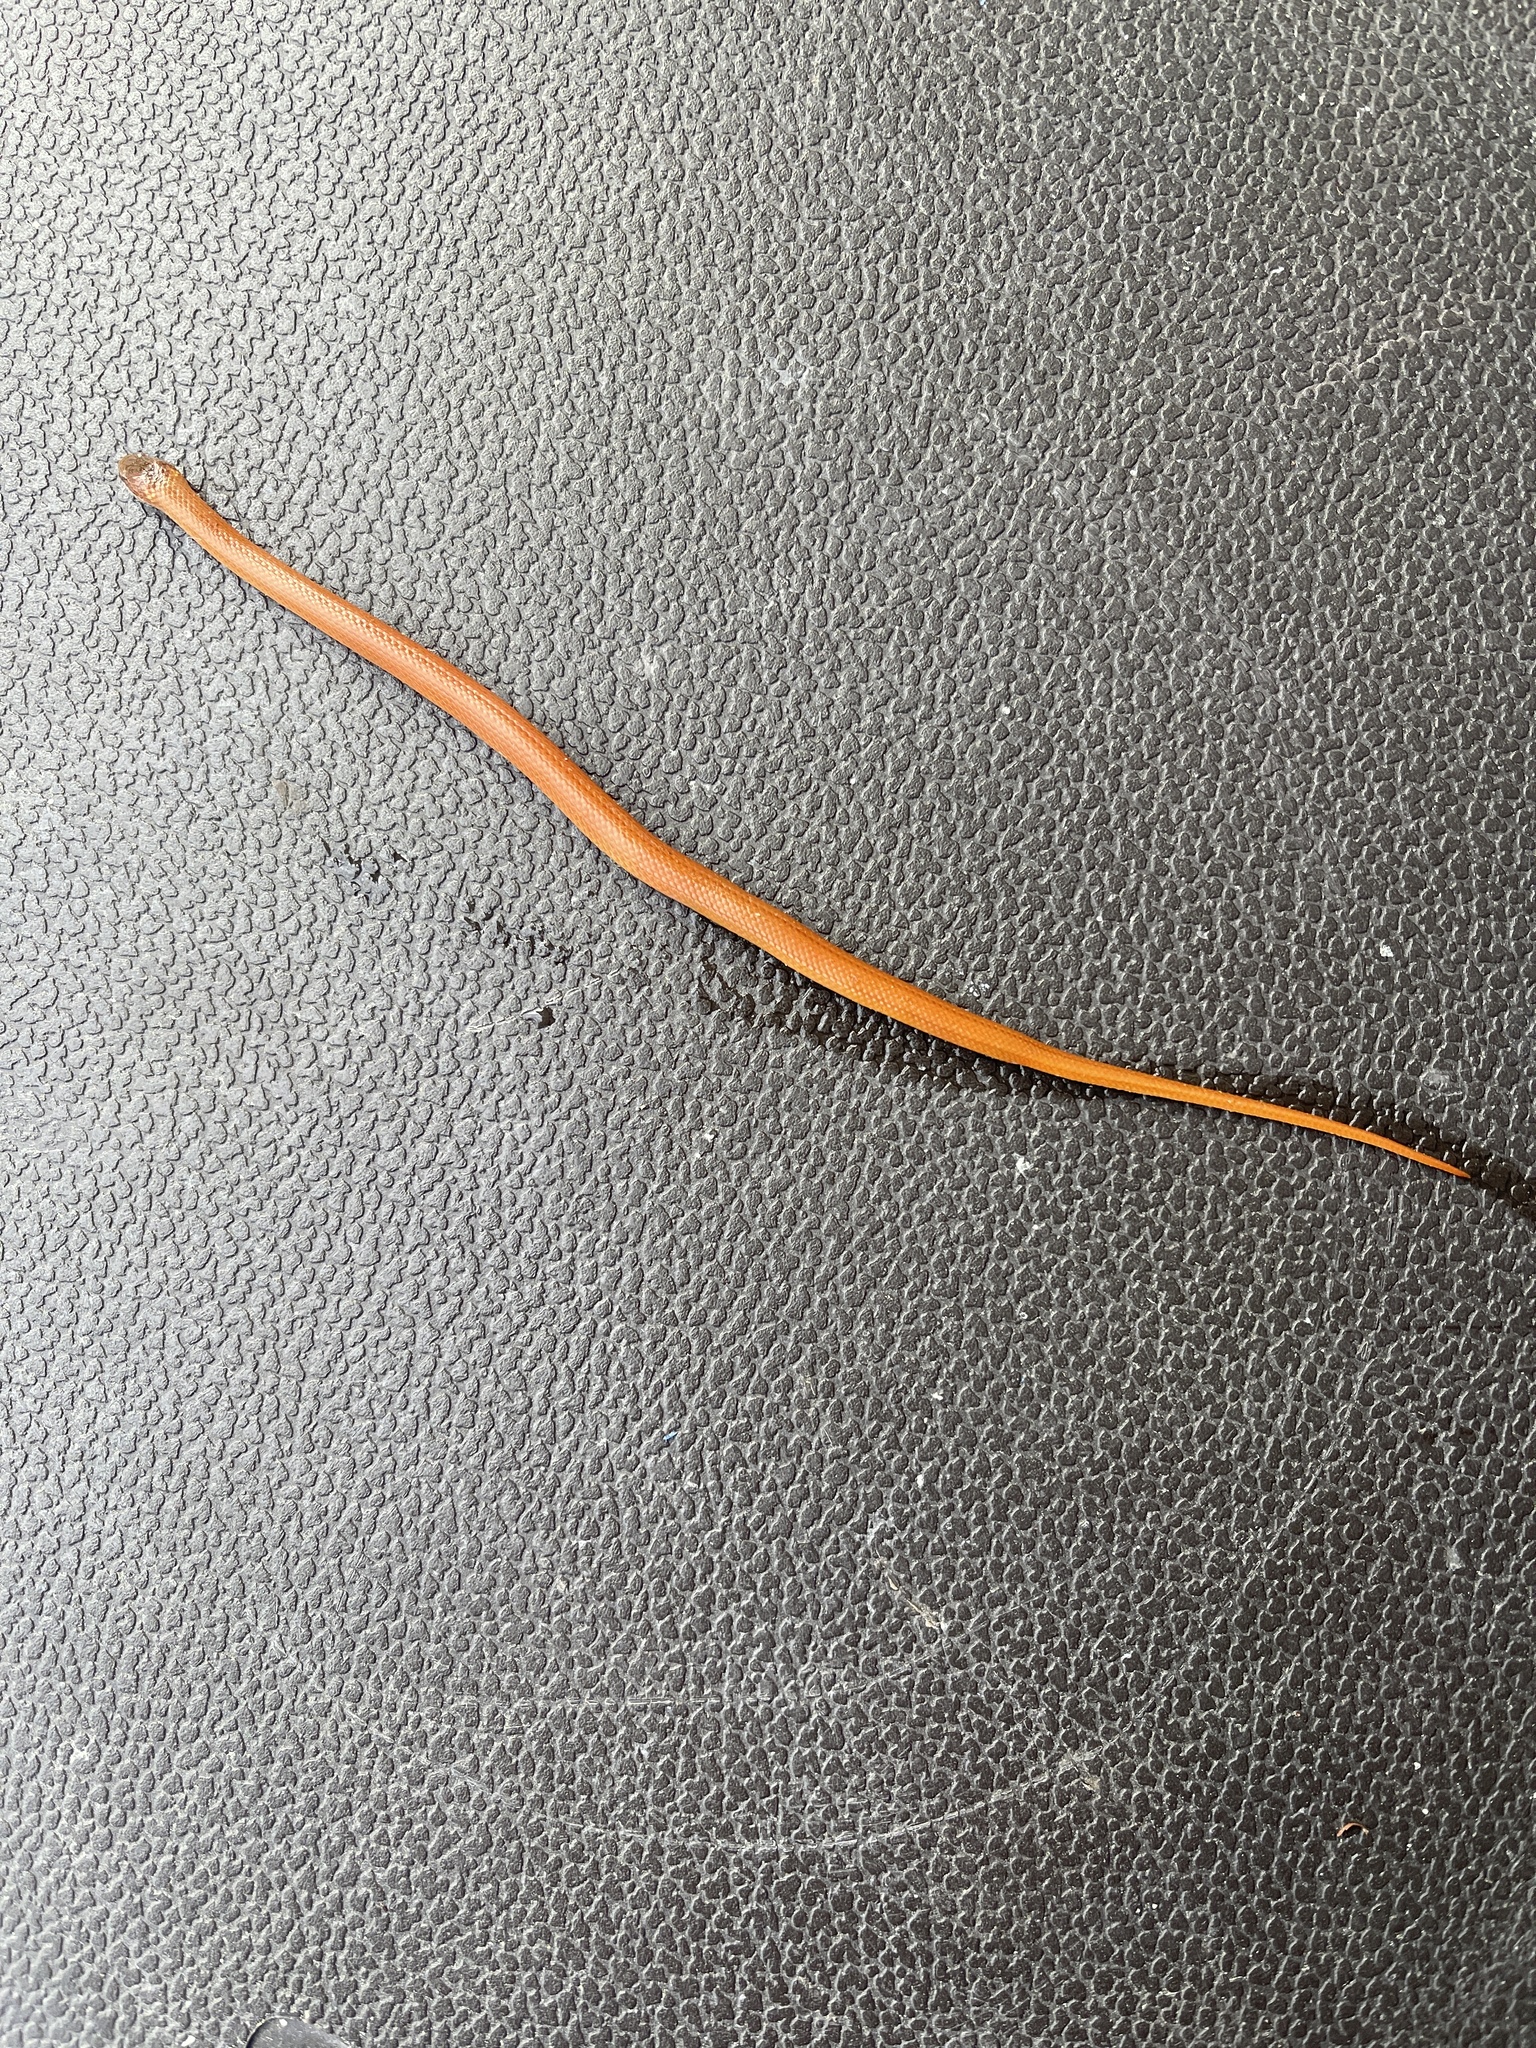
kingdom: Animalia
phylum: Chordata
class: Squamata
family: Colubridae
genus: Rhadinaea
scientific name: Rhadinaea flavilata
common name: Pine woods littersnake
